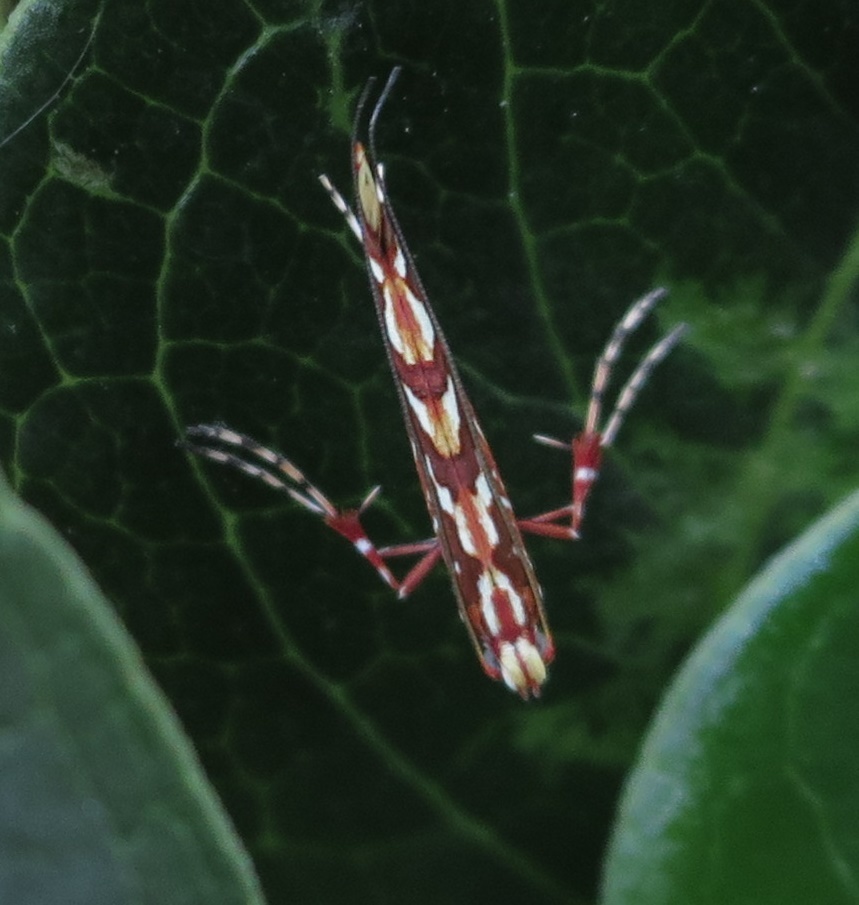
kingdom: Animalia
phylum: Arthropoda
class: Insecta
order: Lepidoptera
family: Gracillariidae
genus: Macarostola
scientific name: Macarostola ida
